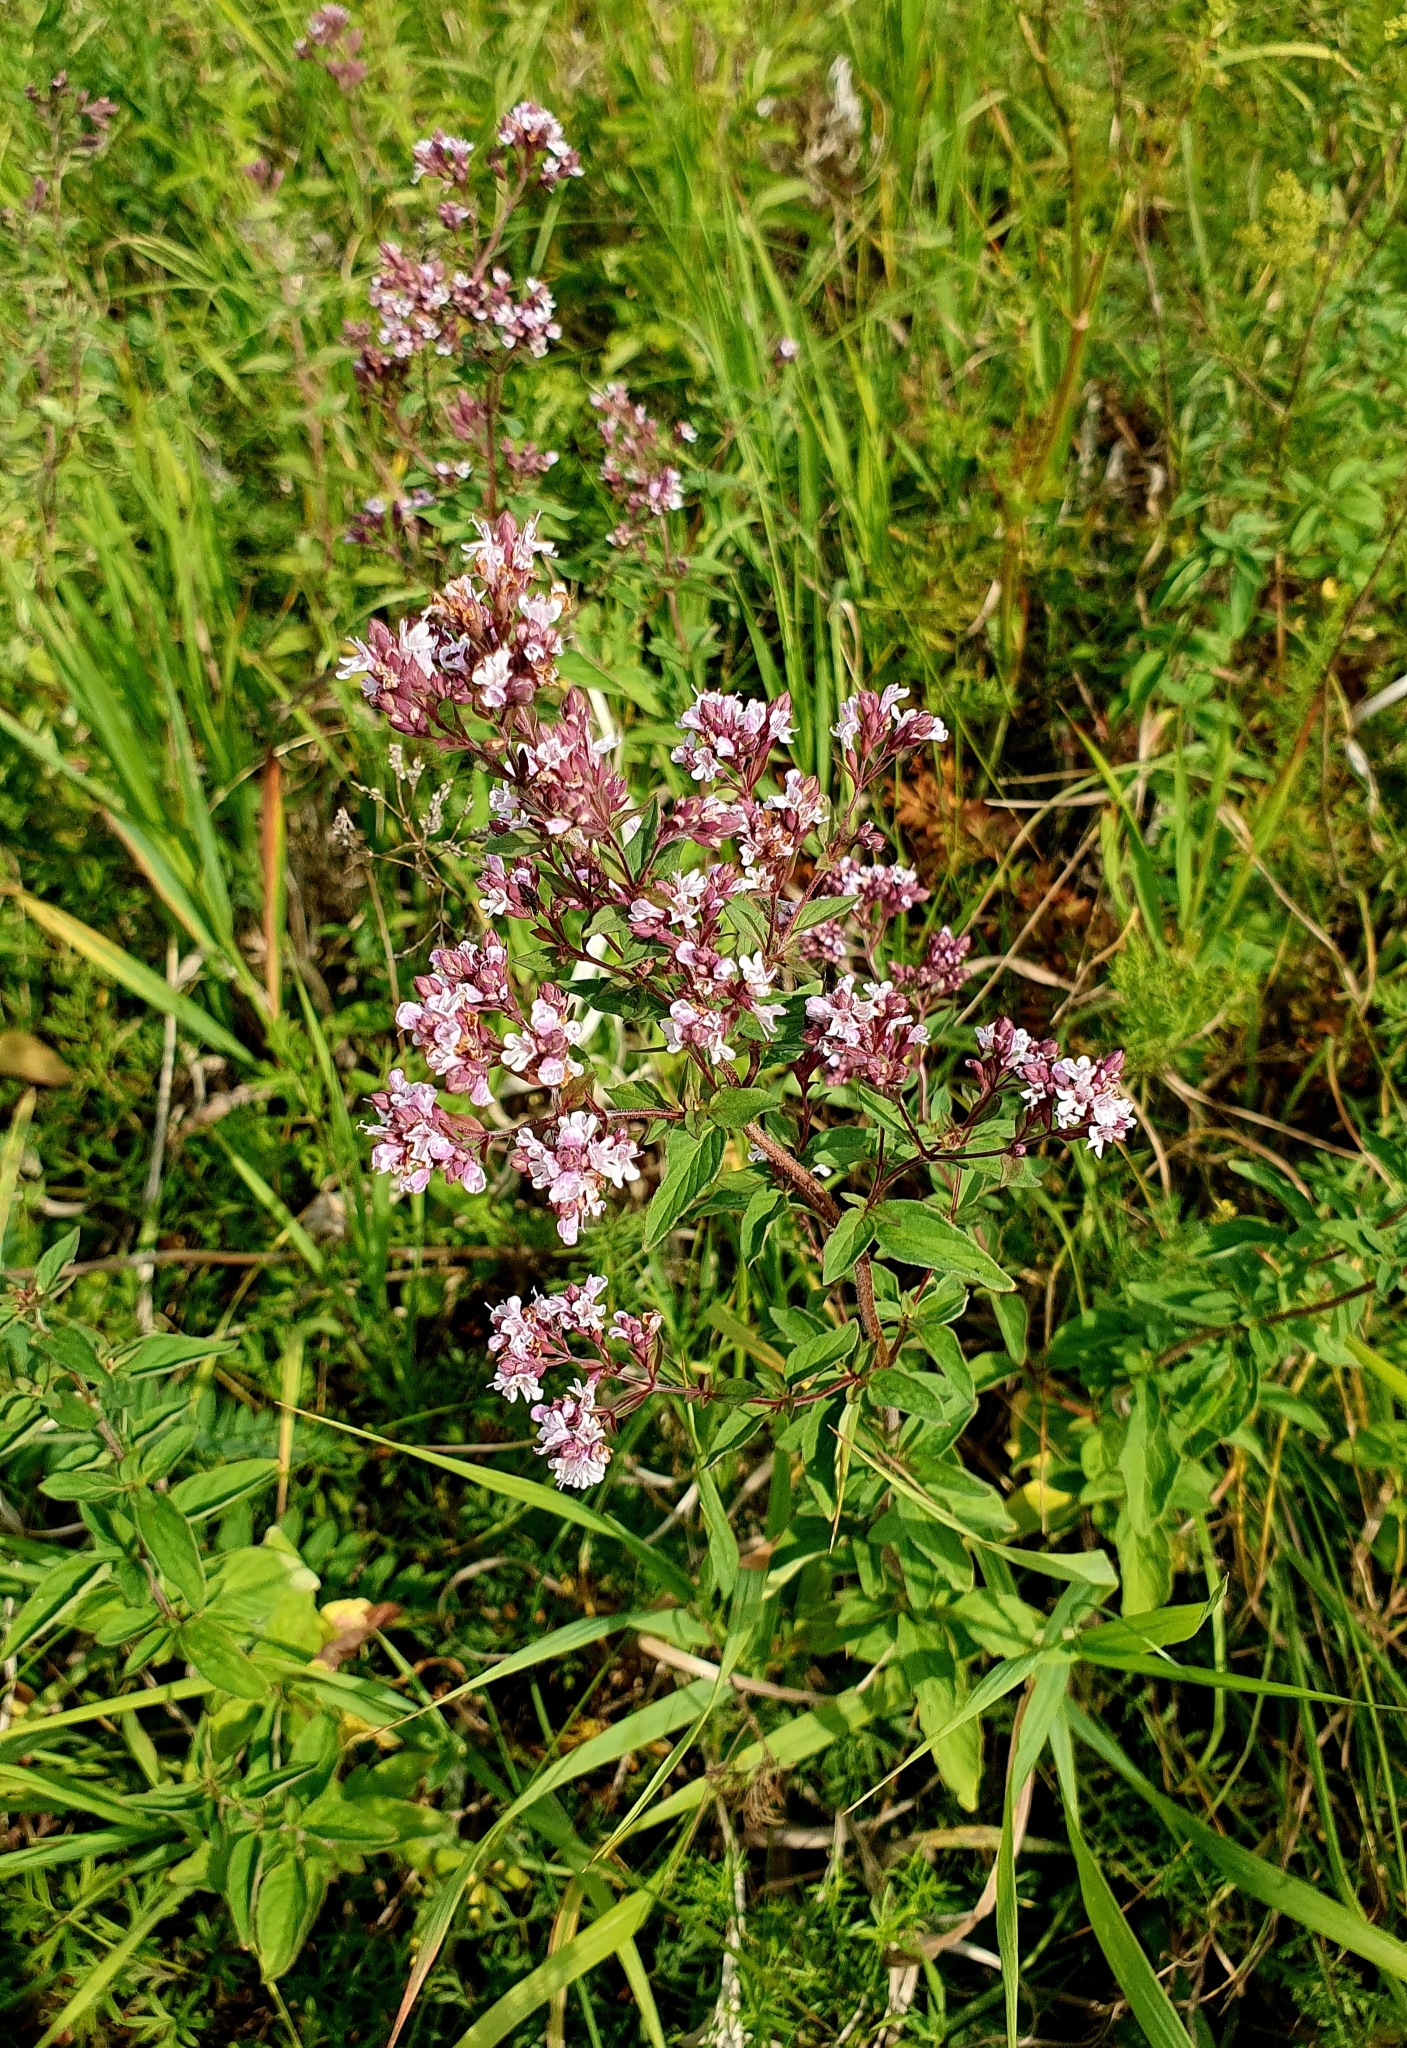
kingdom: Plantae
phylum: Tracheophyta
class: Magnoliopsida
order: Lamiales
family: Lamiaceae
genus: Origanum
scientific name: Origanum vulgare
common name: Wild marjoram
